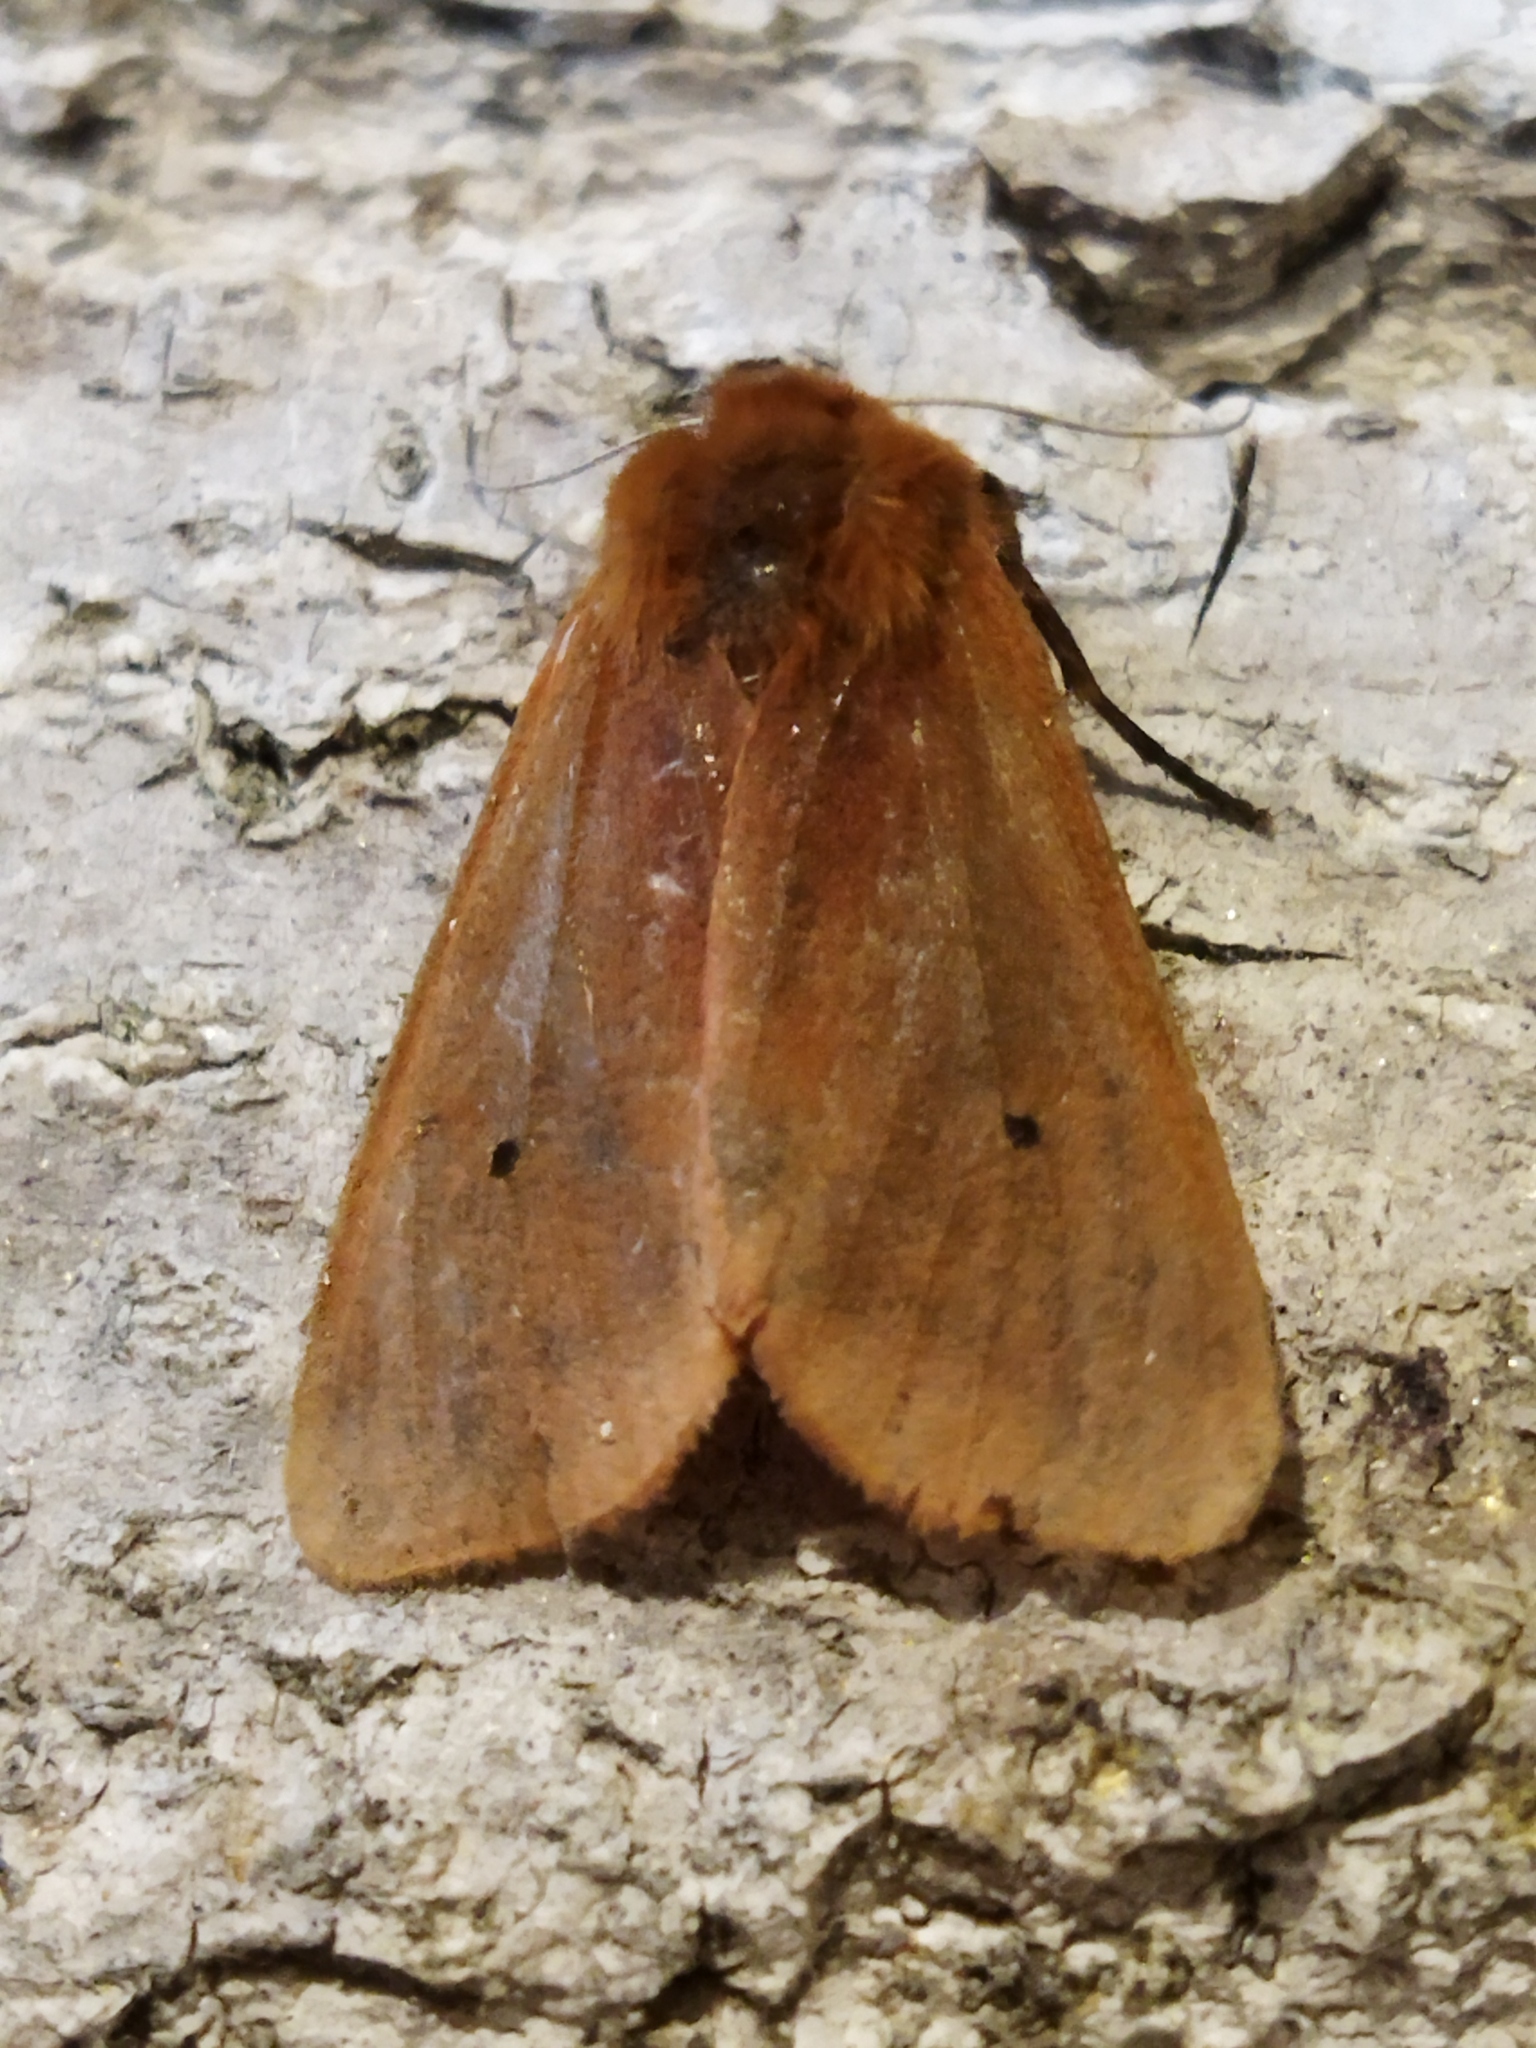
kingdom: Animalia
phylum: Arthropoda
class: Insecta
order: Lepidoptera
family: Erebidae
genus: Phragmatobia
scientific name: Phragmatobia fuliginosa
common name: Ruby tiger
